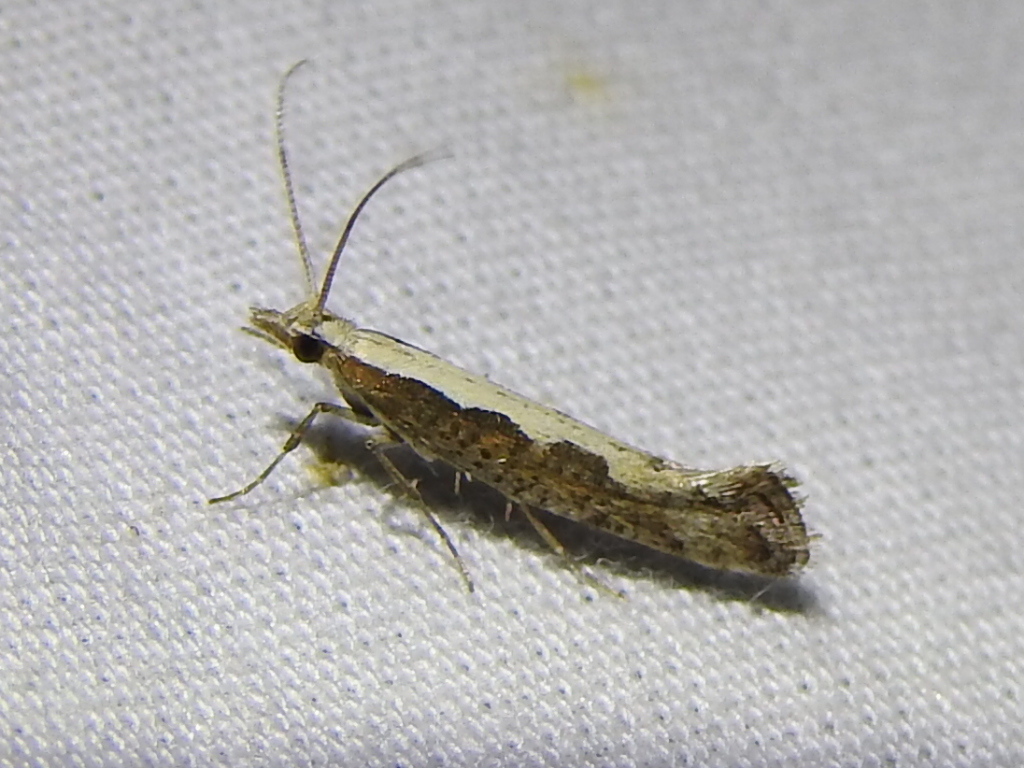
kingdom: Animalia
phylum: Arthropoda
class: Insecta
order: Lepidoptera
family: Plutellidae
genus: Plutella
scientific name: Plutella xylostella
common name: Diamond-back moth
